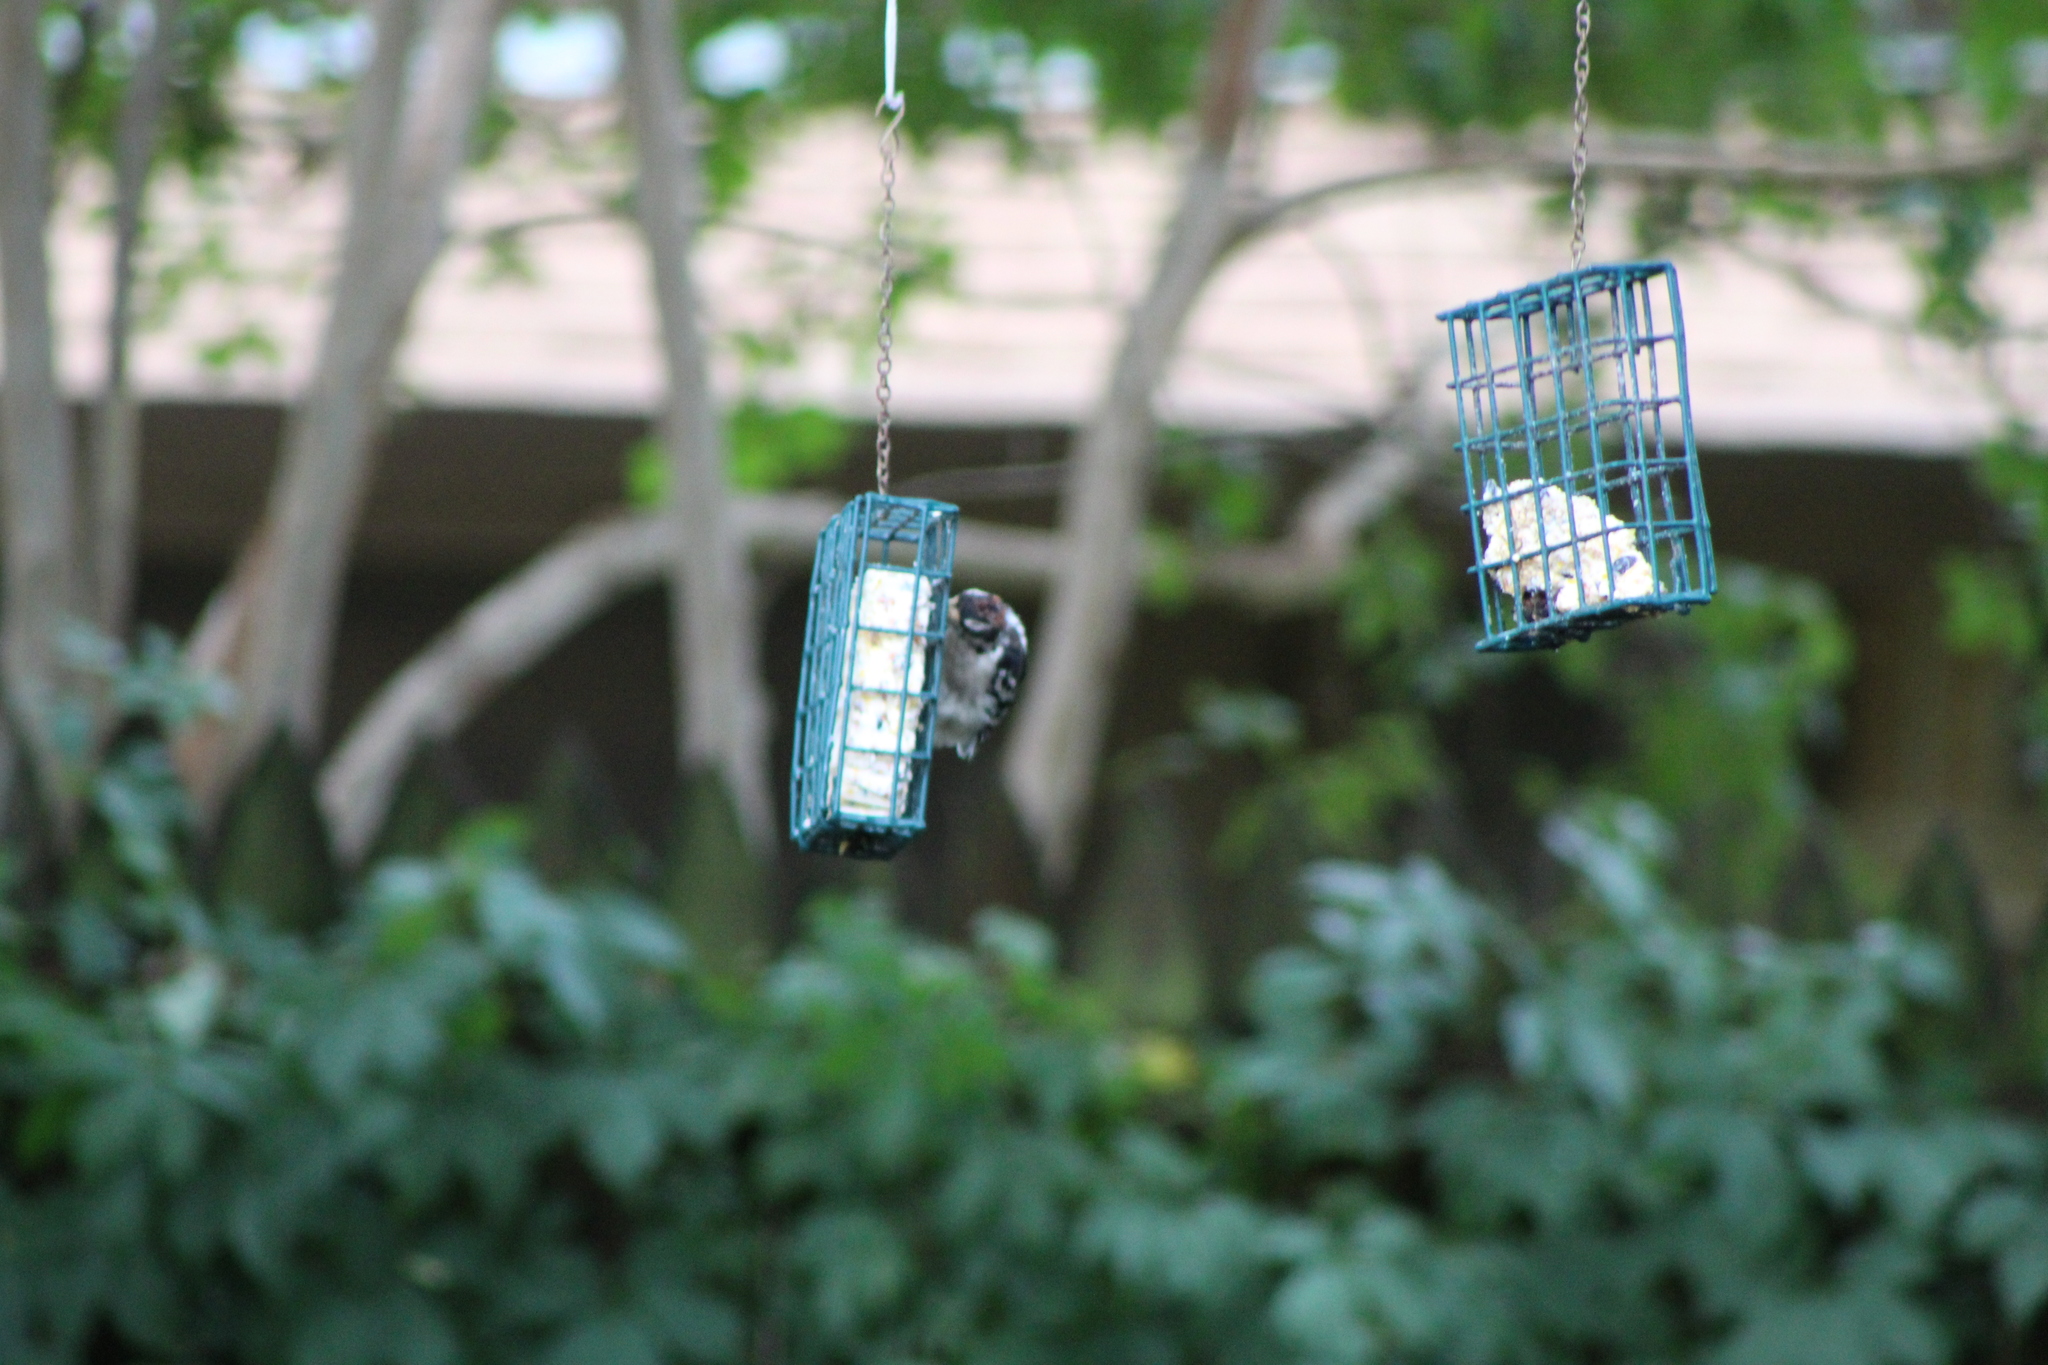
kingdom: Animalia
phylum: Chordata
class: Aves
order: Piciformes
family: Picidae
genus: Dryobates
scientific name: Dryobates pubescens
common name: Downy woodpecker
